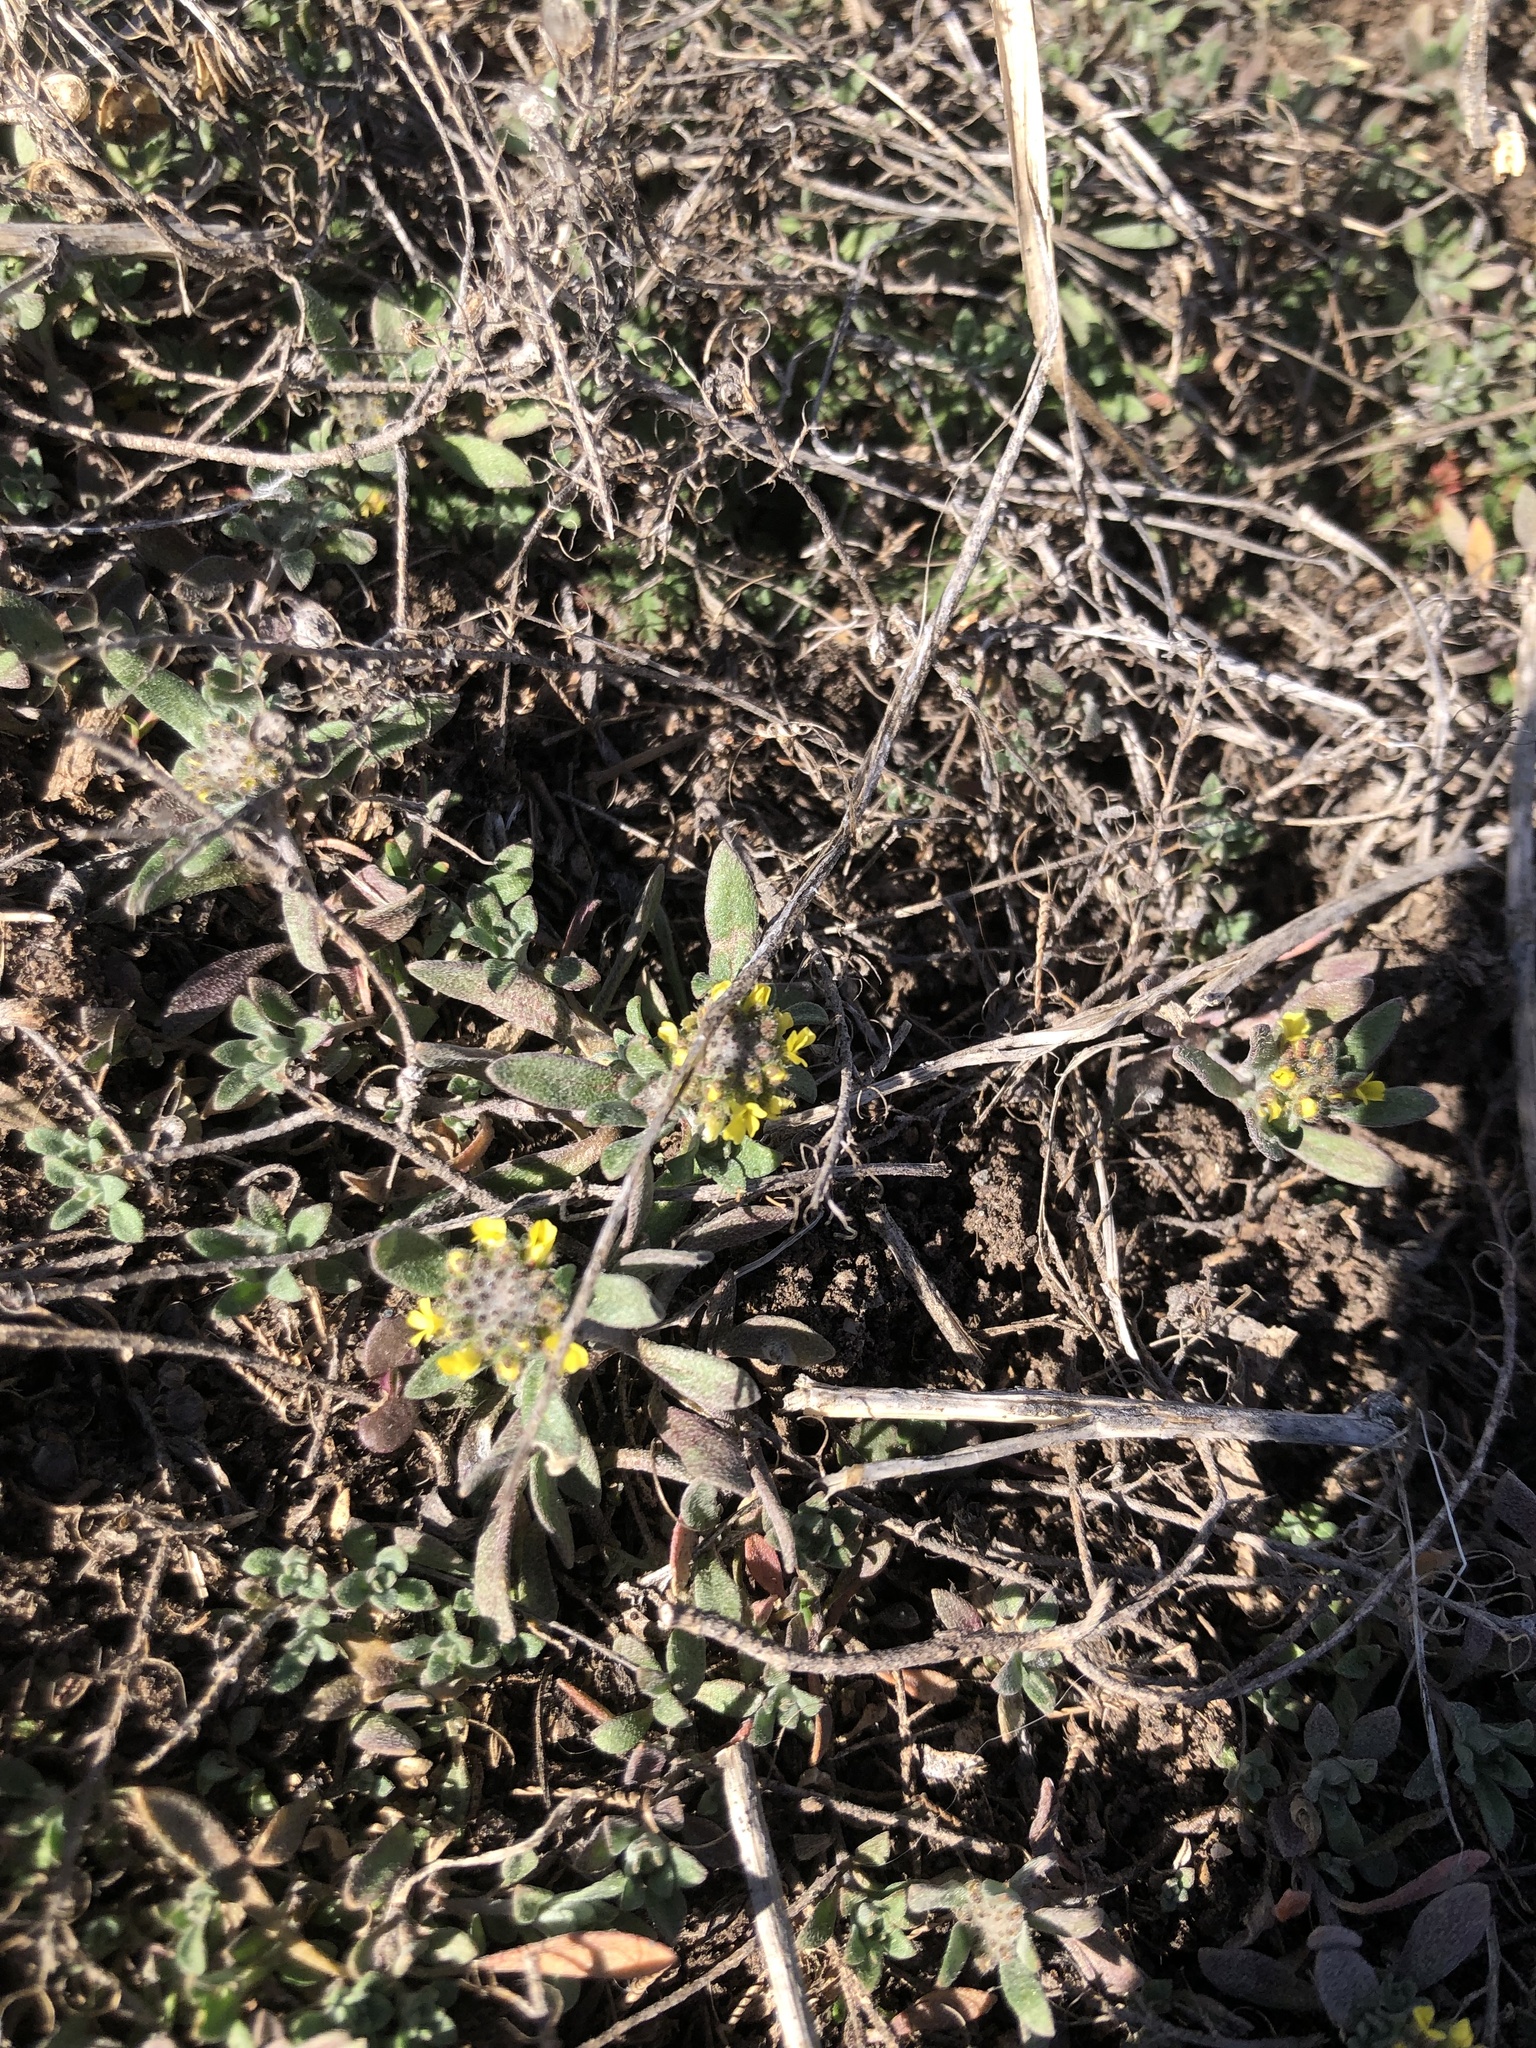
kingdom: Plantae
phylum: Tracheophyta
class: Magnoliopsida
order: Brassicales
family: Brassicaceae
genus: Alyssum
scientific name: Alyssum turkestanicum
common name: Desert alyssum
